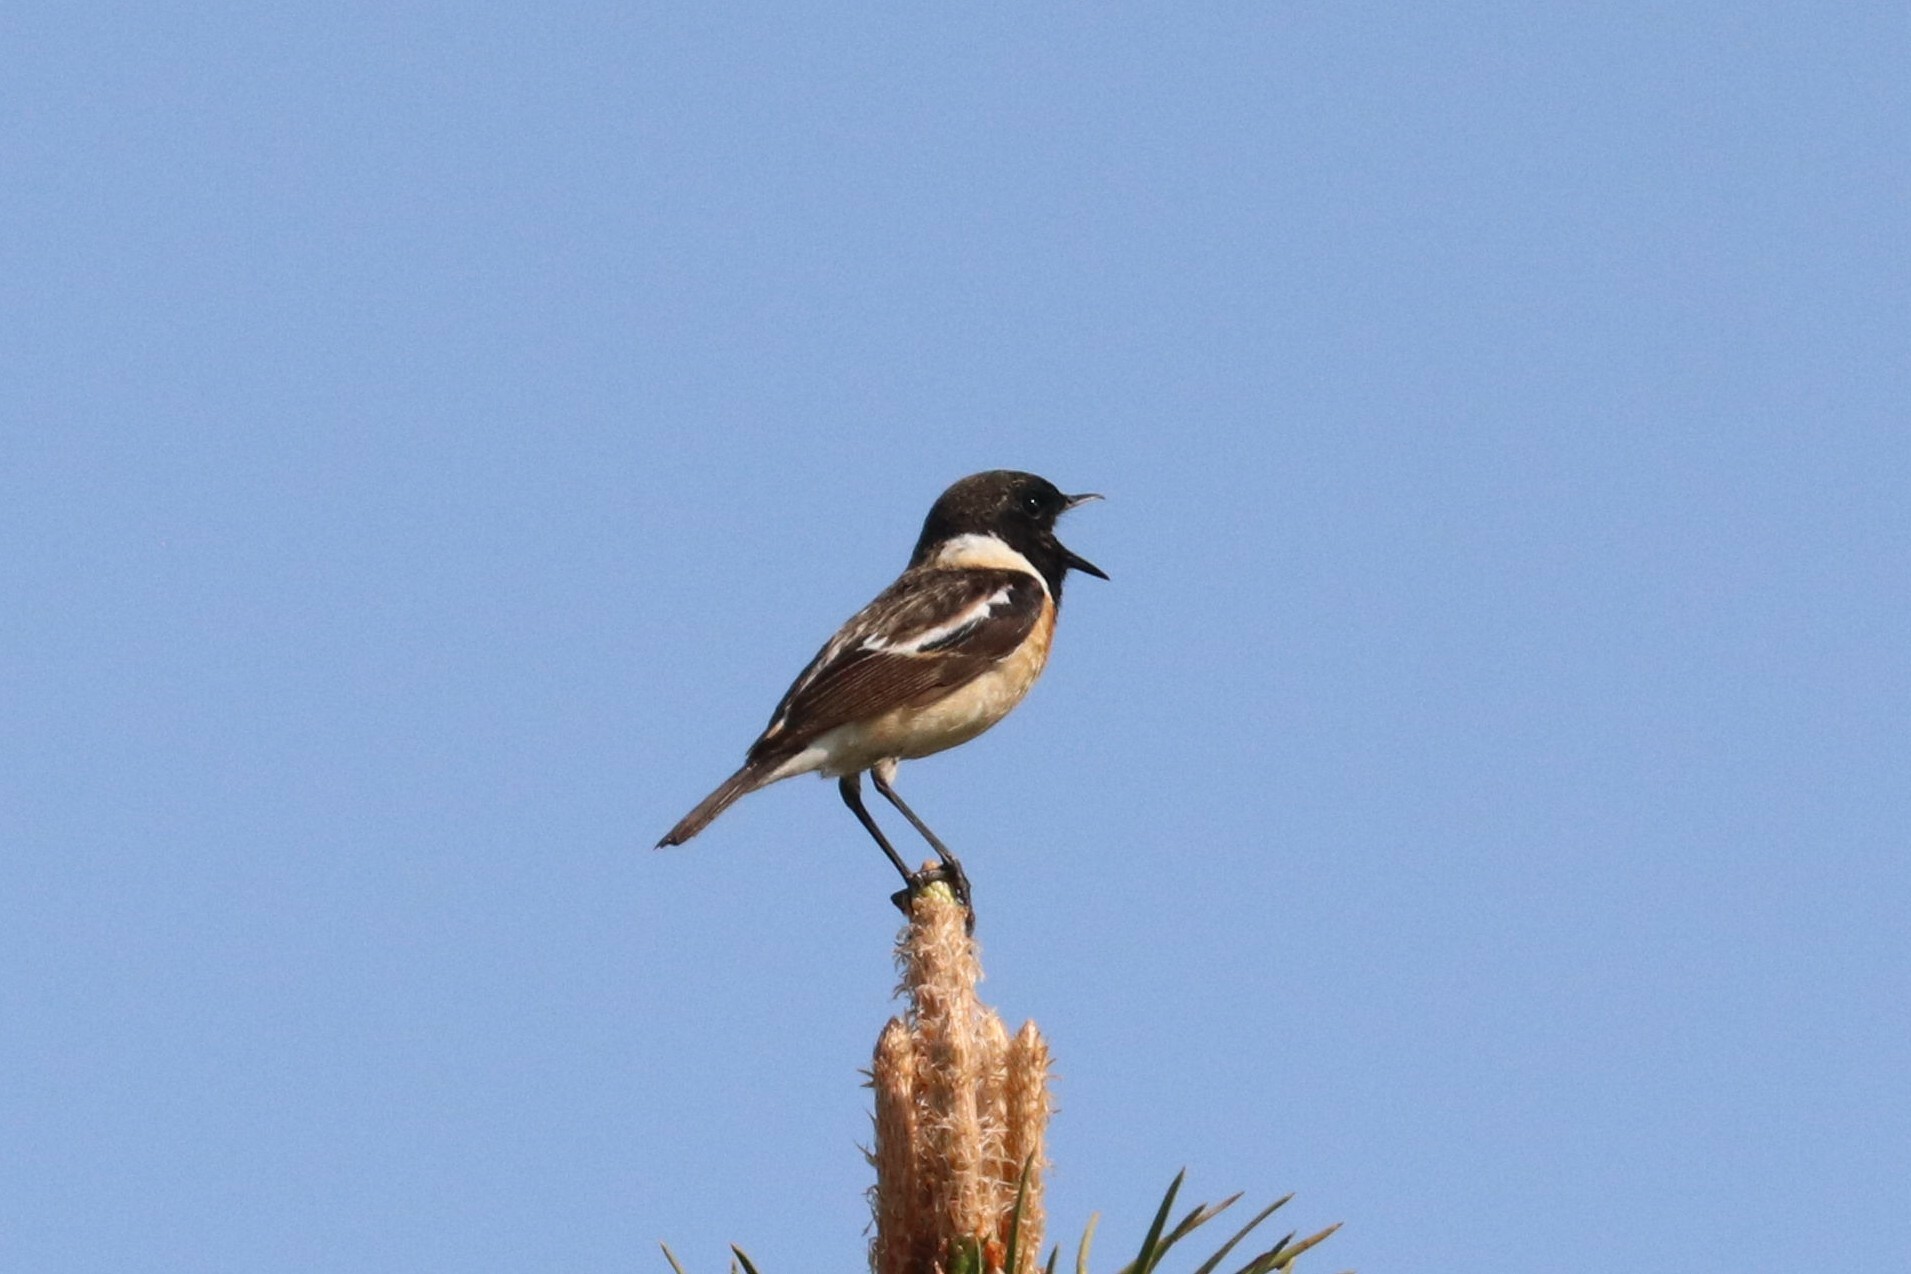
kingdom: Animalia
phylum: Chordata
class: Aves
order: Passeriformes
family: Muscicapidae
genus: Saxicola
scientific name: Saxicola maurus
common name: Siberian stonechat
